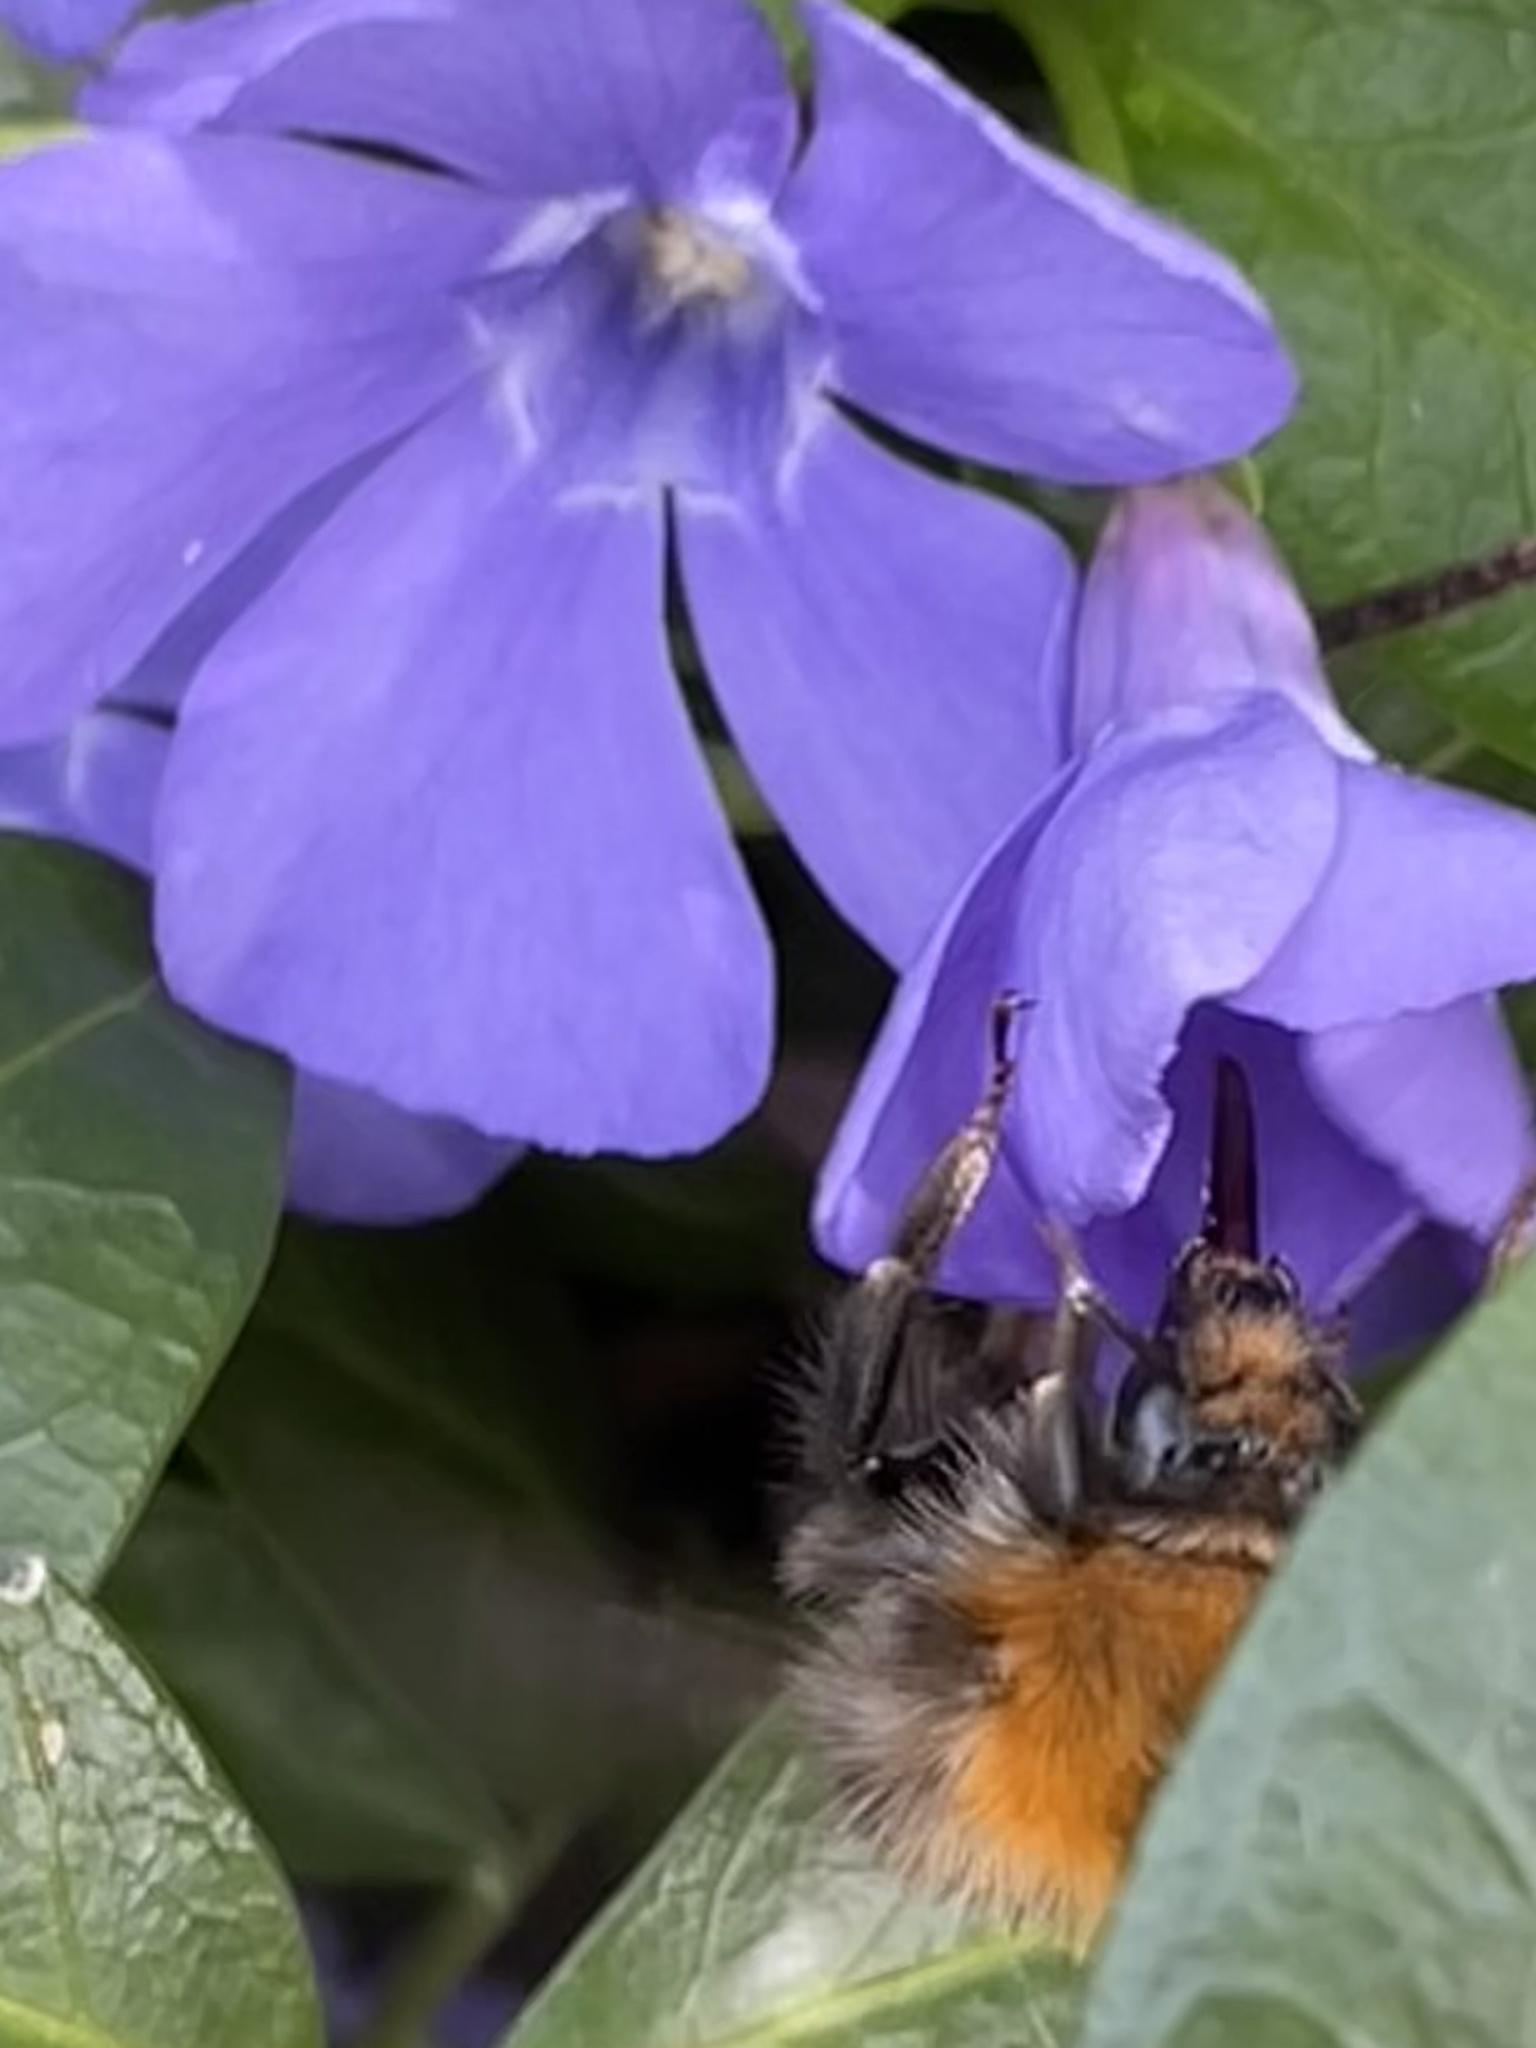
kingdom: Animalia
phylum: Arthropoda
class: Insecta
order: Hymenoptera
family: Apidae
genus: Bombus
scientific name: Bombus pascuorum
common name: Common carder bee
